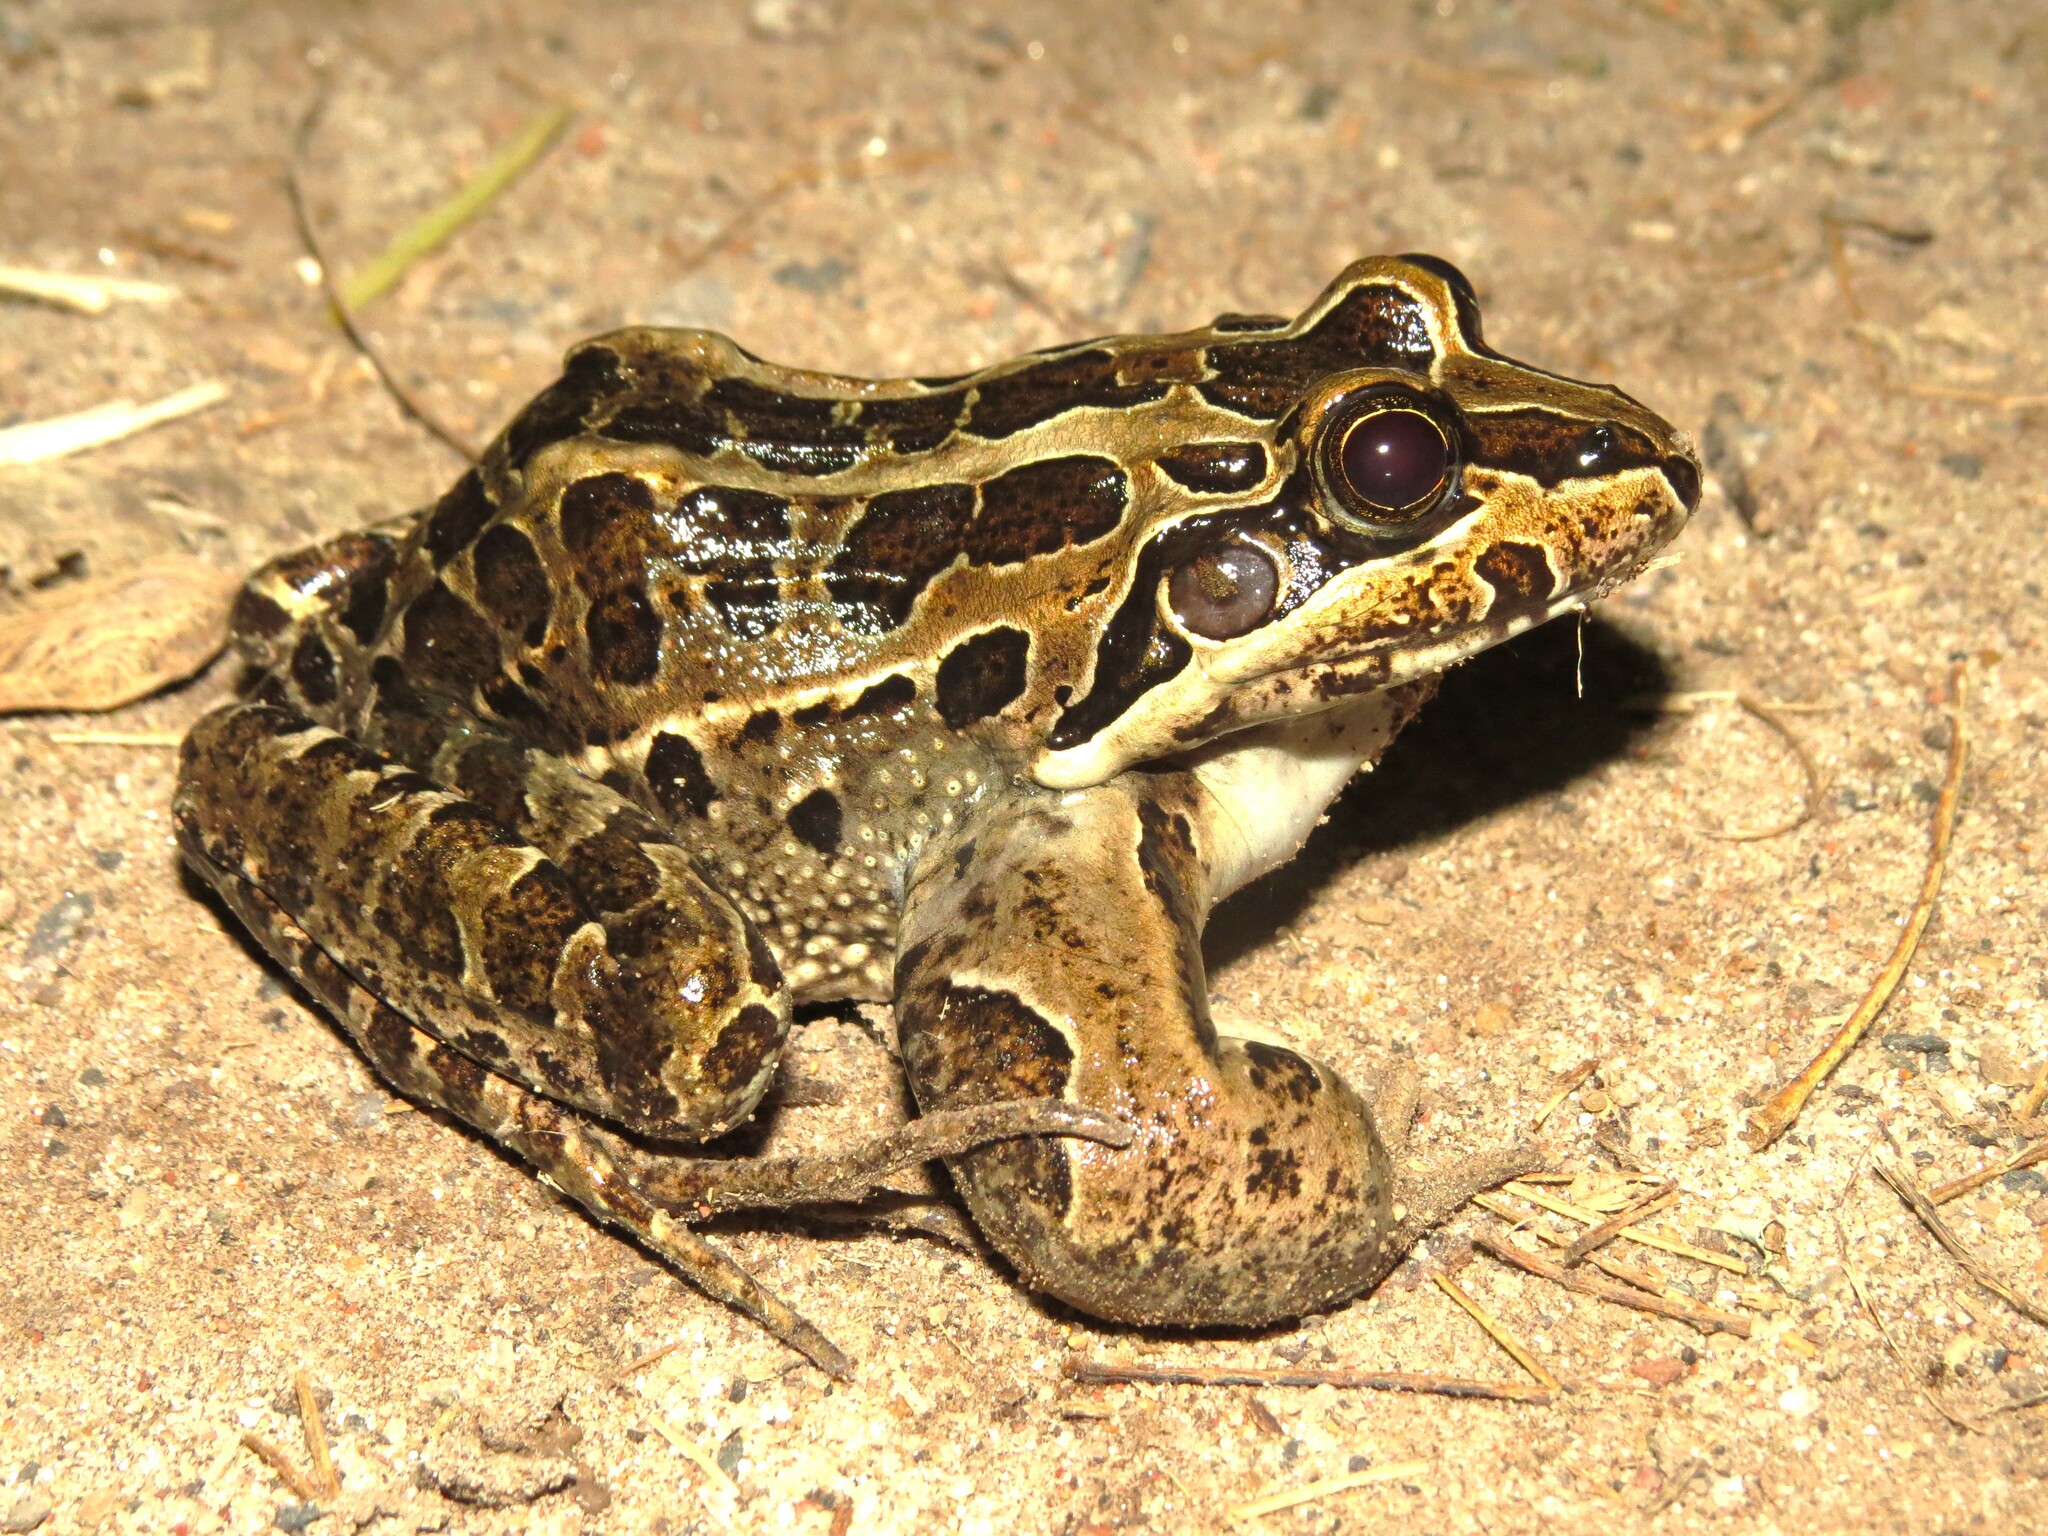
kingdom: Animalia
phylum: Chordata
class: Amphibia
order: Anura
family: Leptodactylidae
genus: Leptodactylus
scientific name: Leptodactylus luctator
